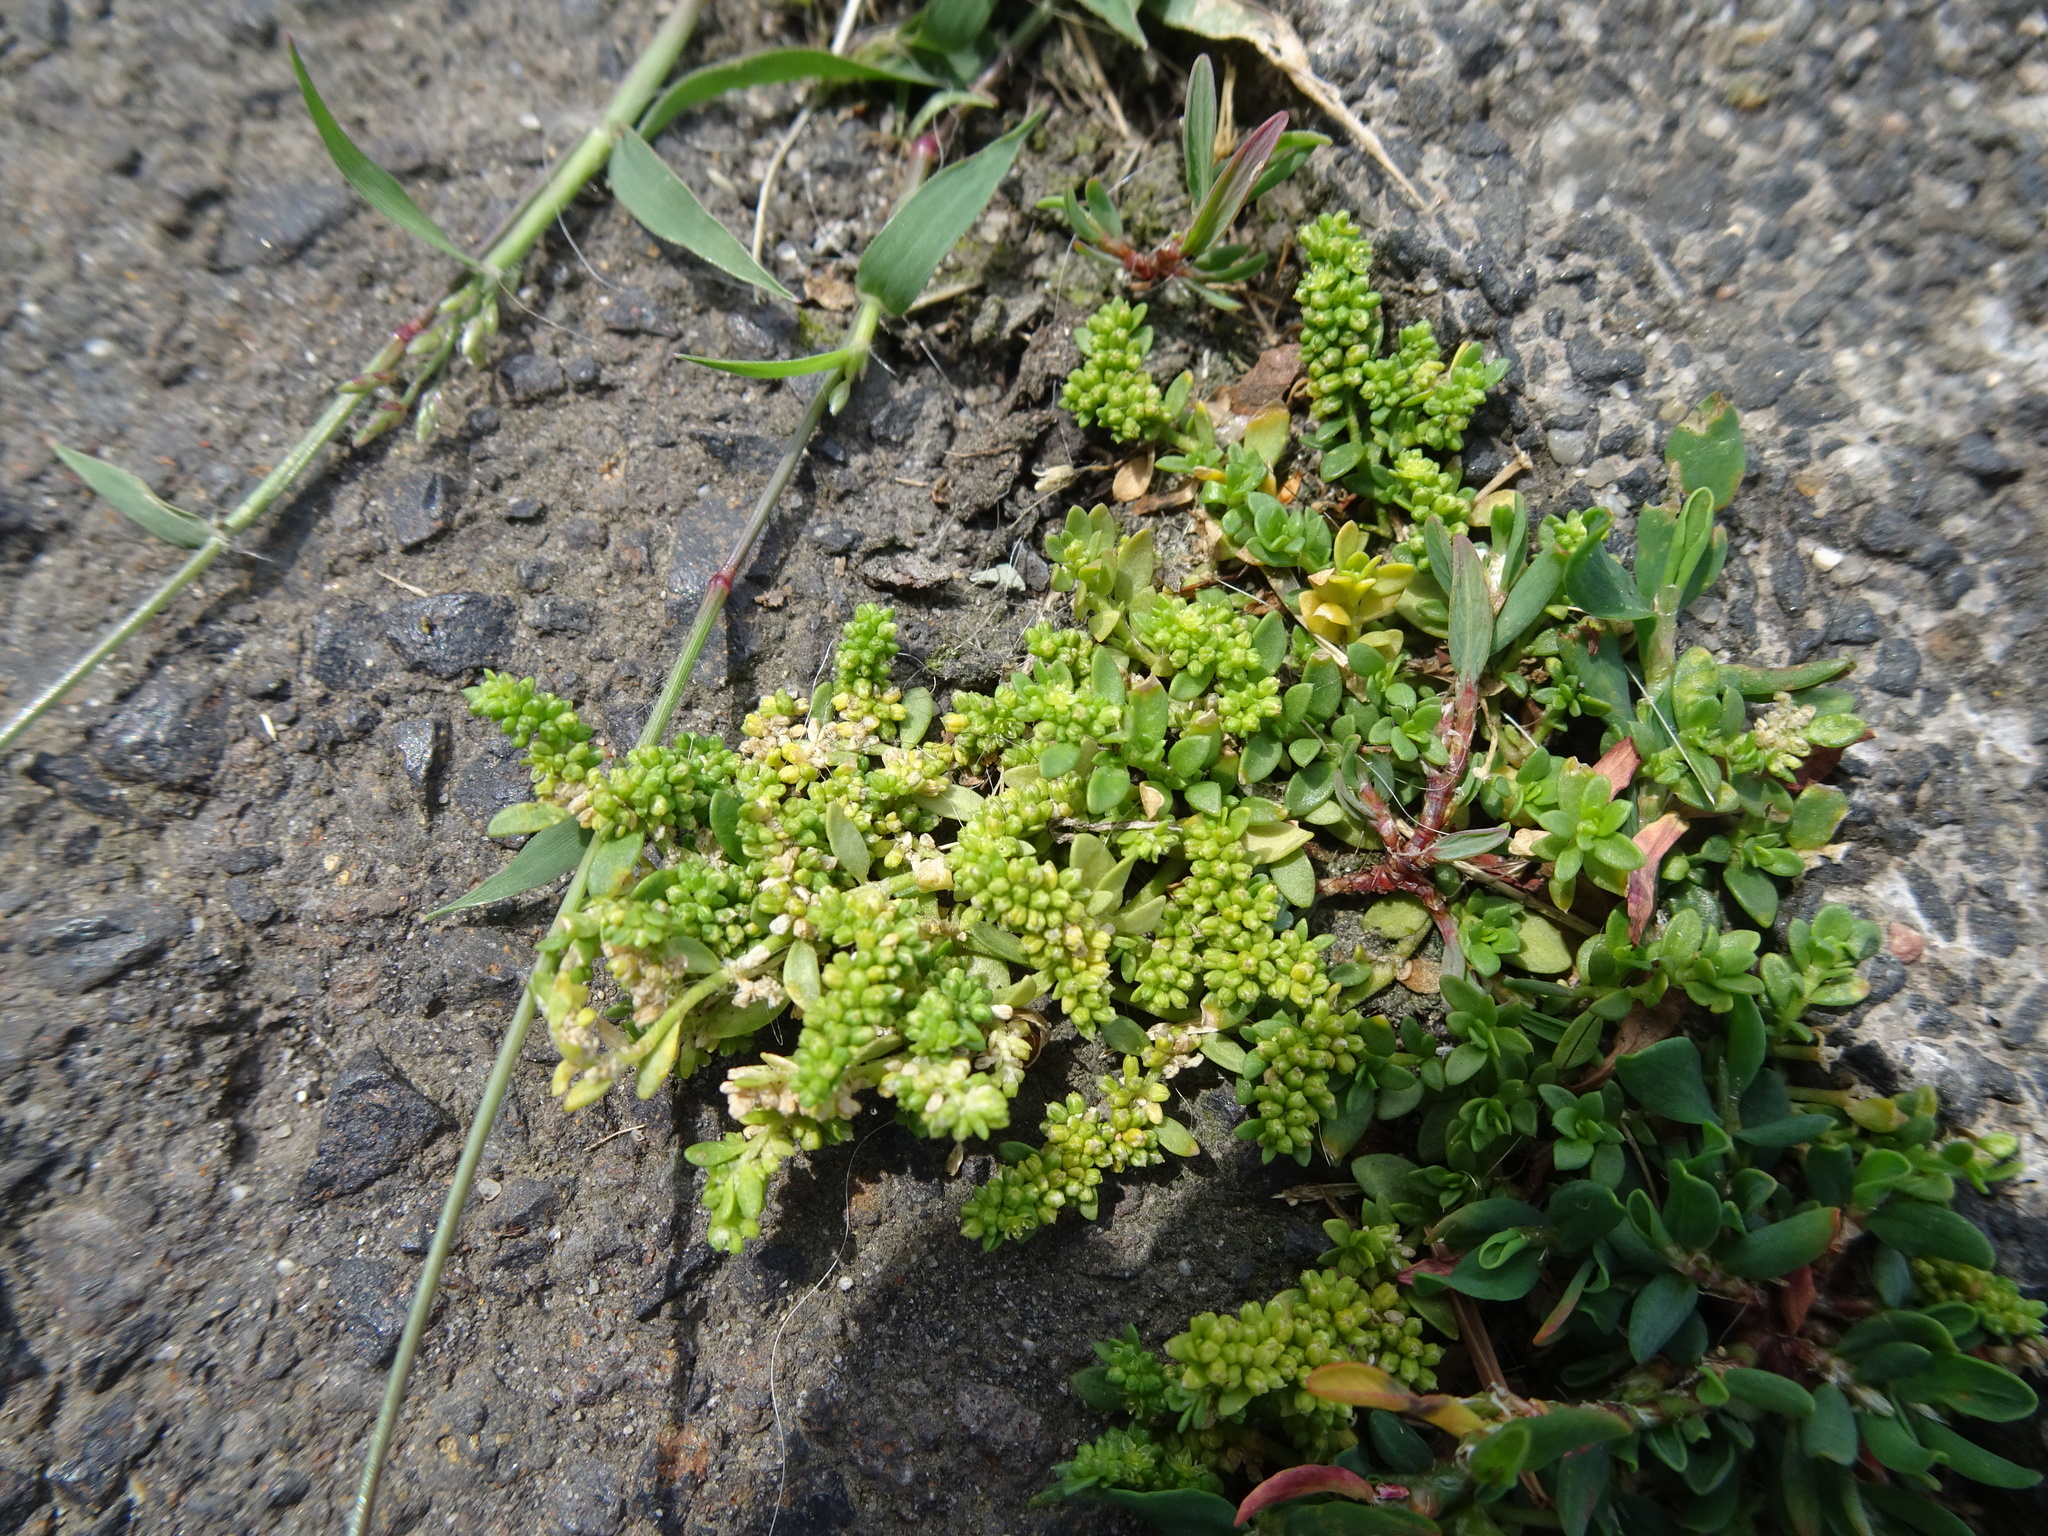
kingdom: Plantae
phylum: Tracheophyta
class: Magnoliopsida
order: Caryophyllales
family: Caryophyllaceae
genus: Herniaria
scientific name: Herniaria glabra
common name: Smooth rupturewort
